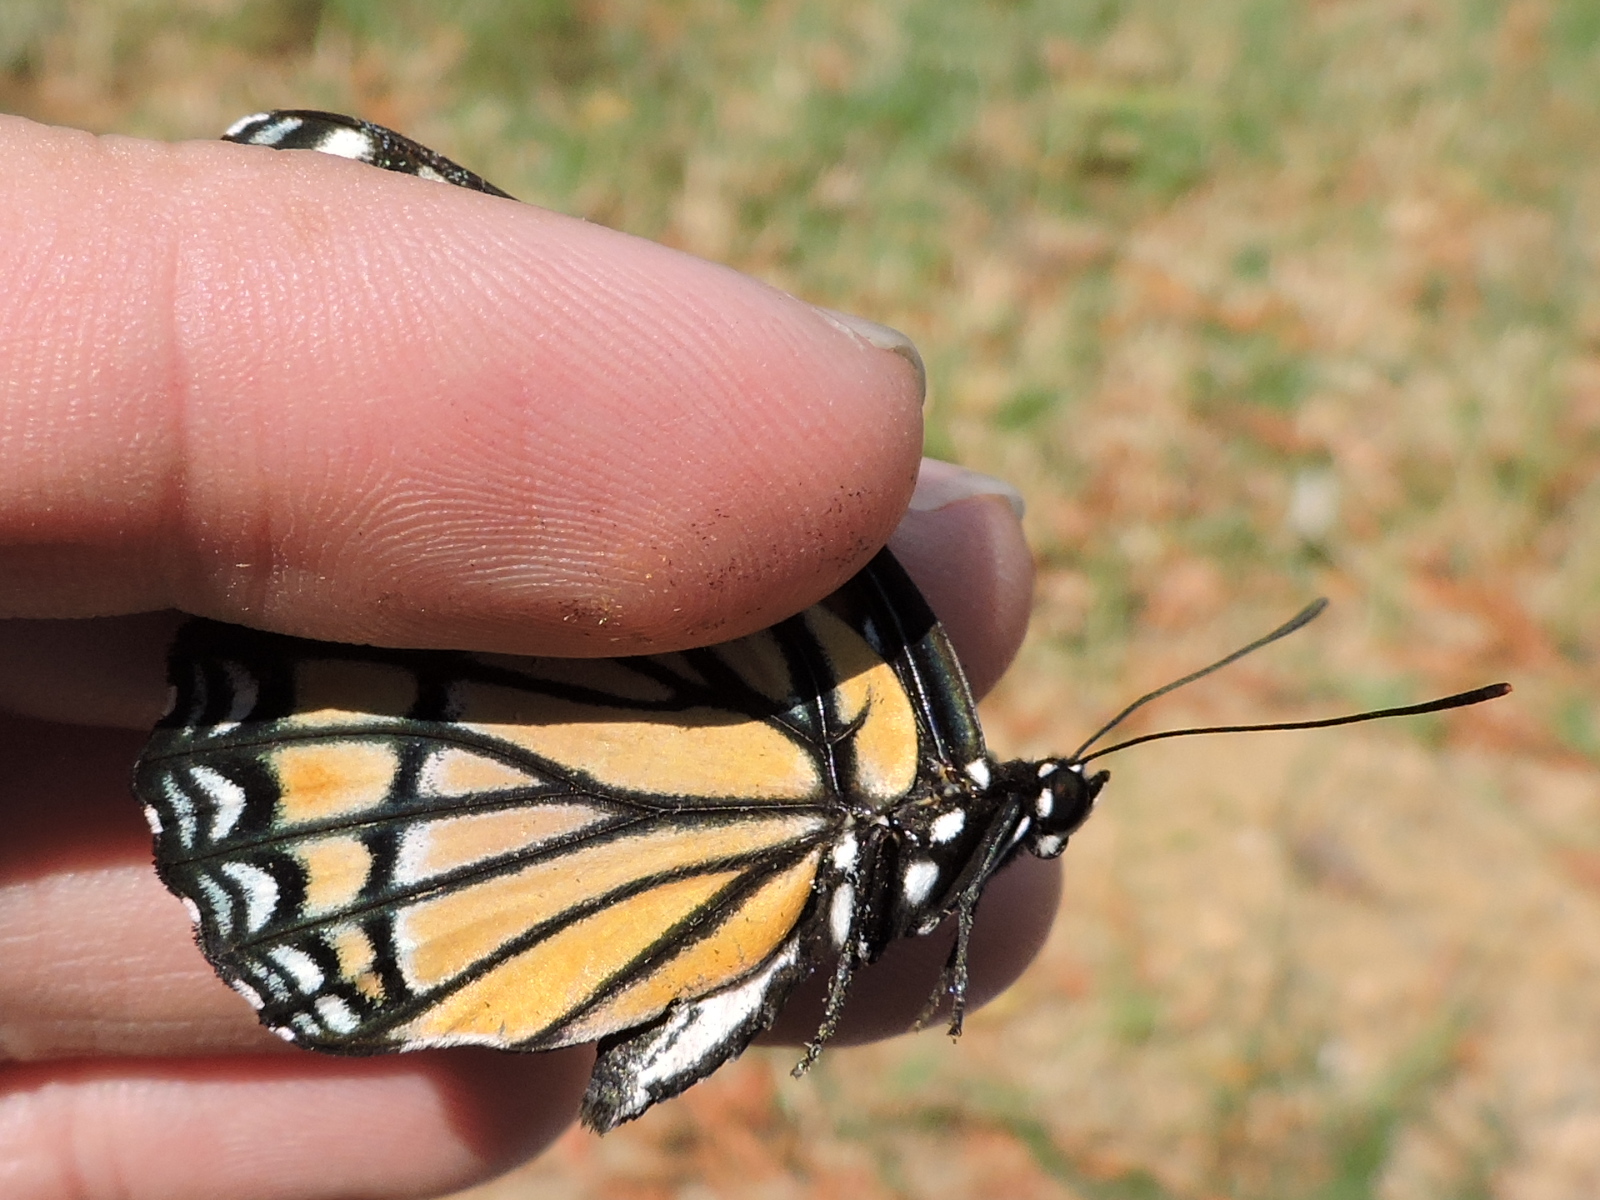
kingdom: Animalia
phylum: Arthropoda
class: Insecta
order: Lepidoptera
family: Nymphalidae
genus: Limenitis
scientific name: Limenitis archippus
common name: Viceroy
